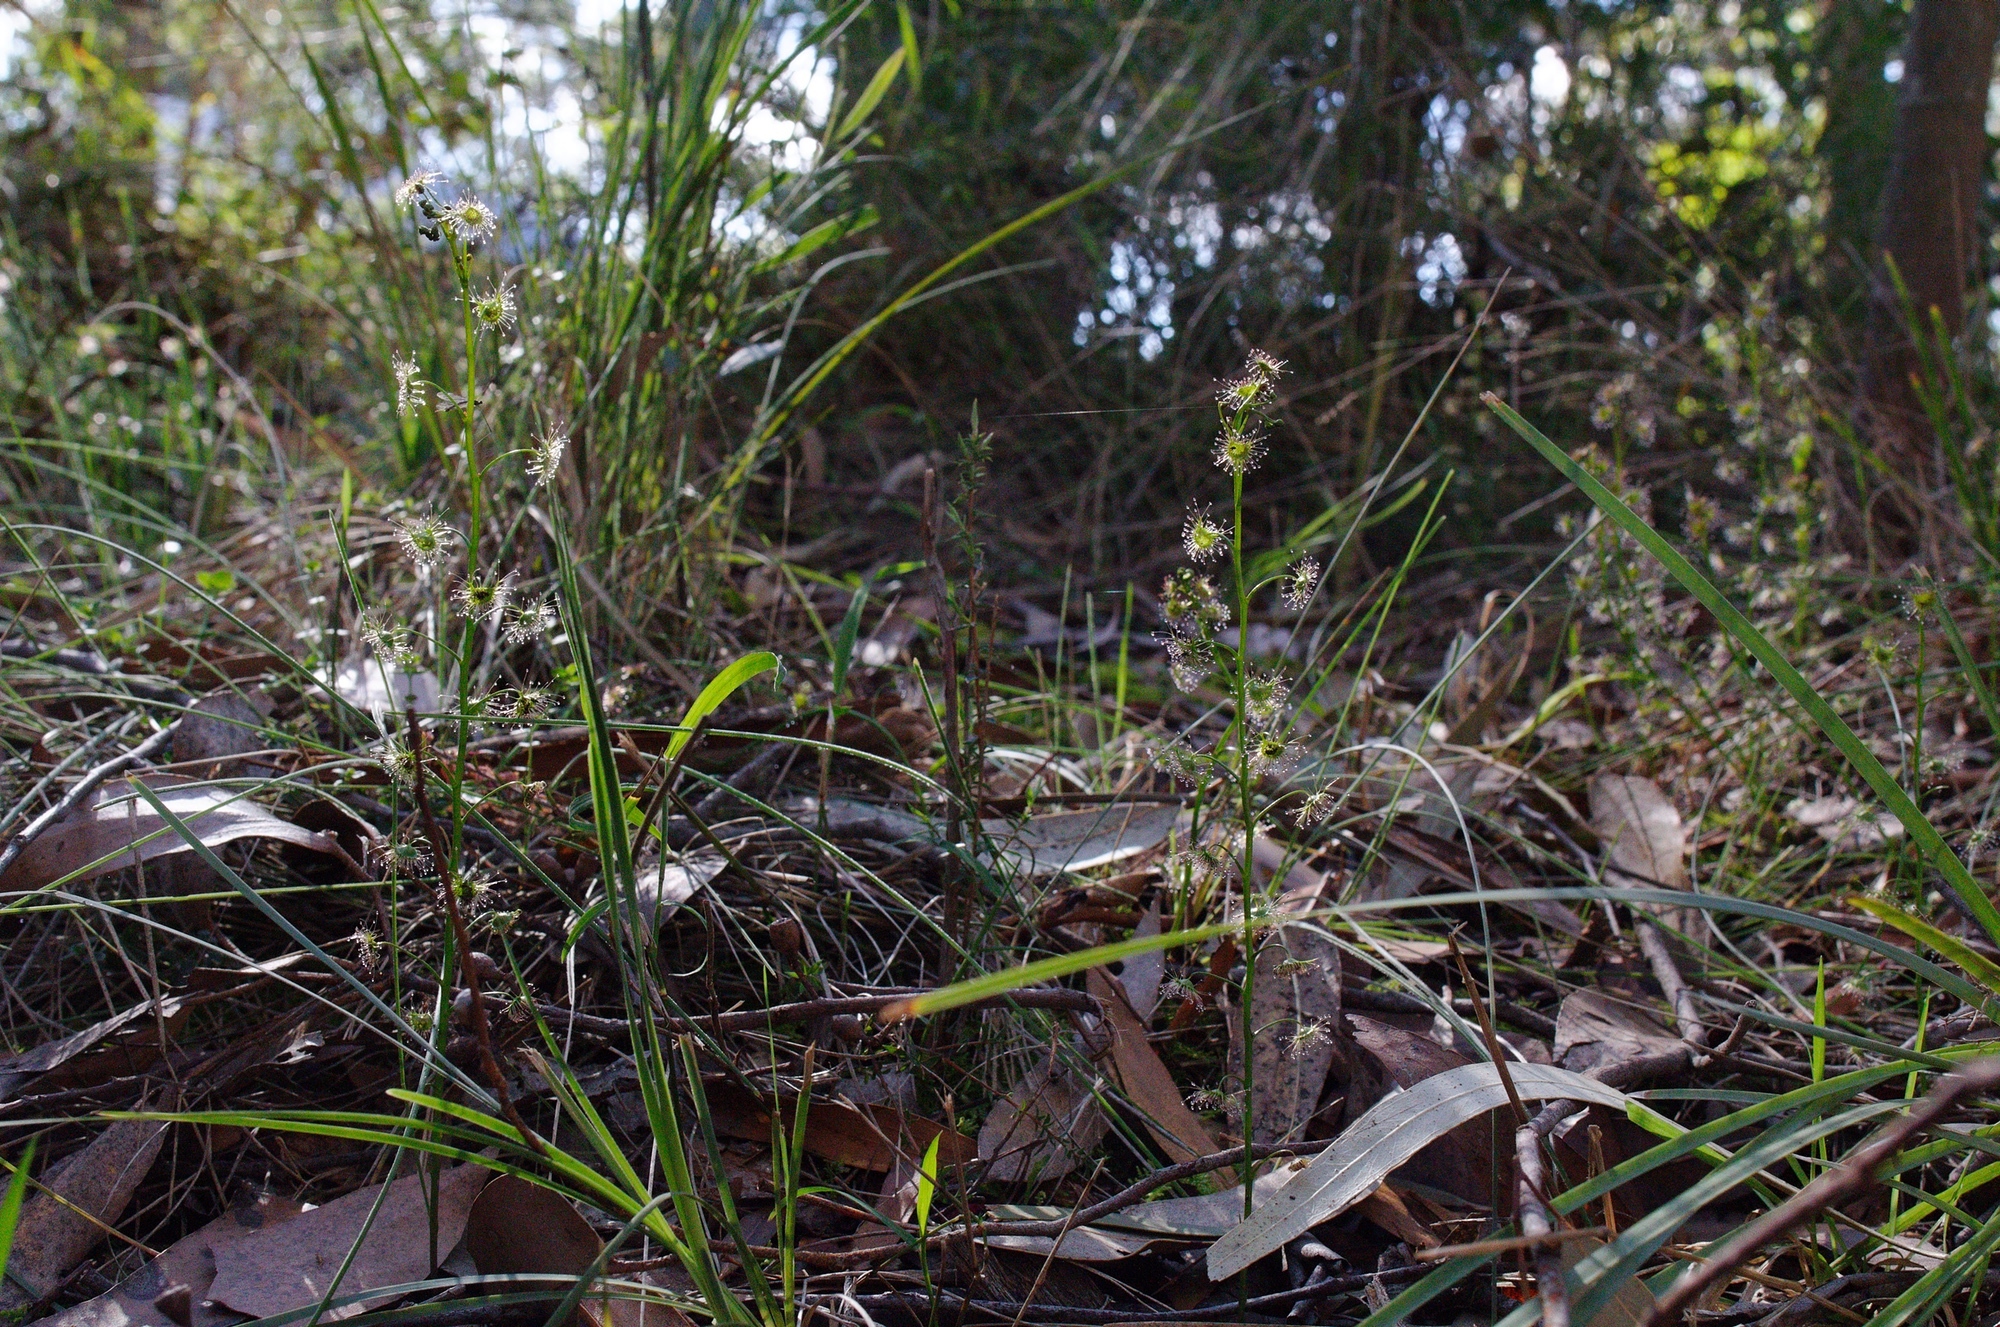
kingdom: Plantae
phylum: Tracheophyta
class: Magnoliopsida
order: Caryophyllales
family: Droseraceae
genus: Drosera
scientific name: Drosera peltata
